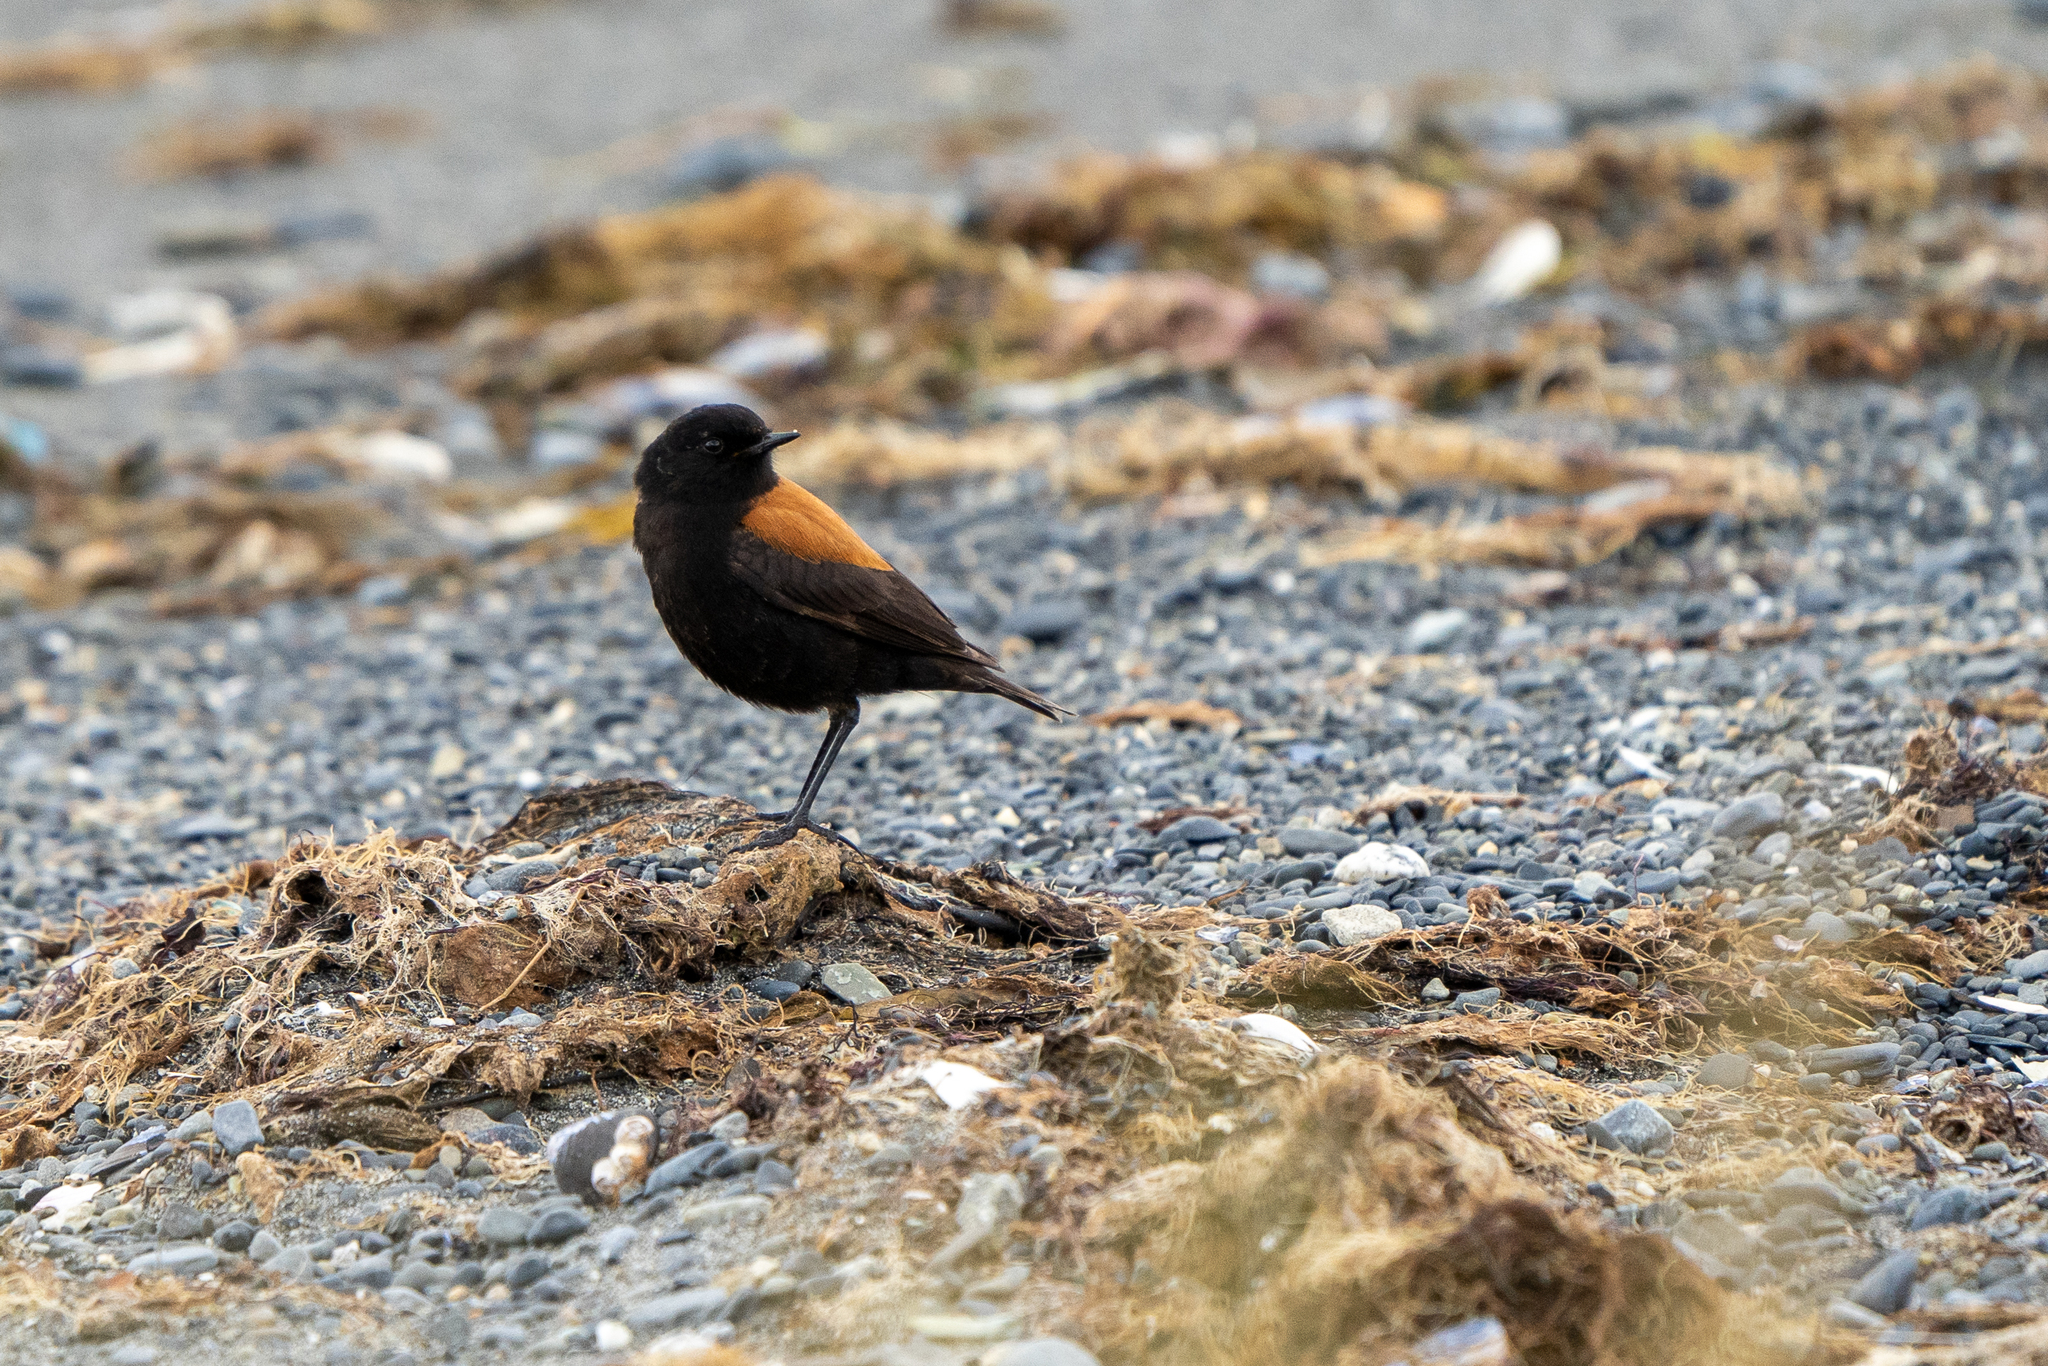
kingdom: Animalia
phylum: Chordata
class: Aves
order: Passeriformes
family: Tyrannidae
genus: Lessonia
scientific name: Lessonia rufa
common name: Austral negrito
